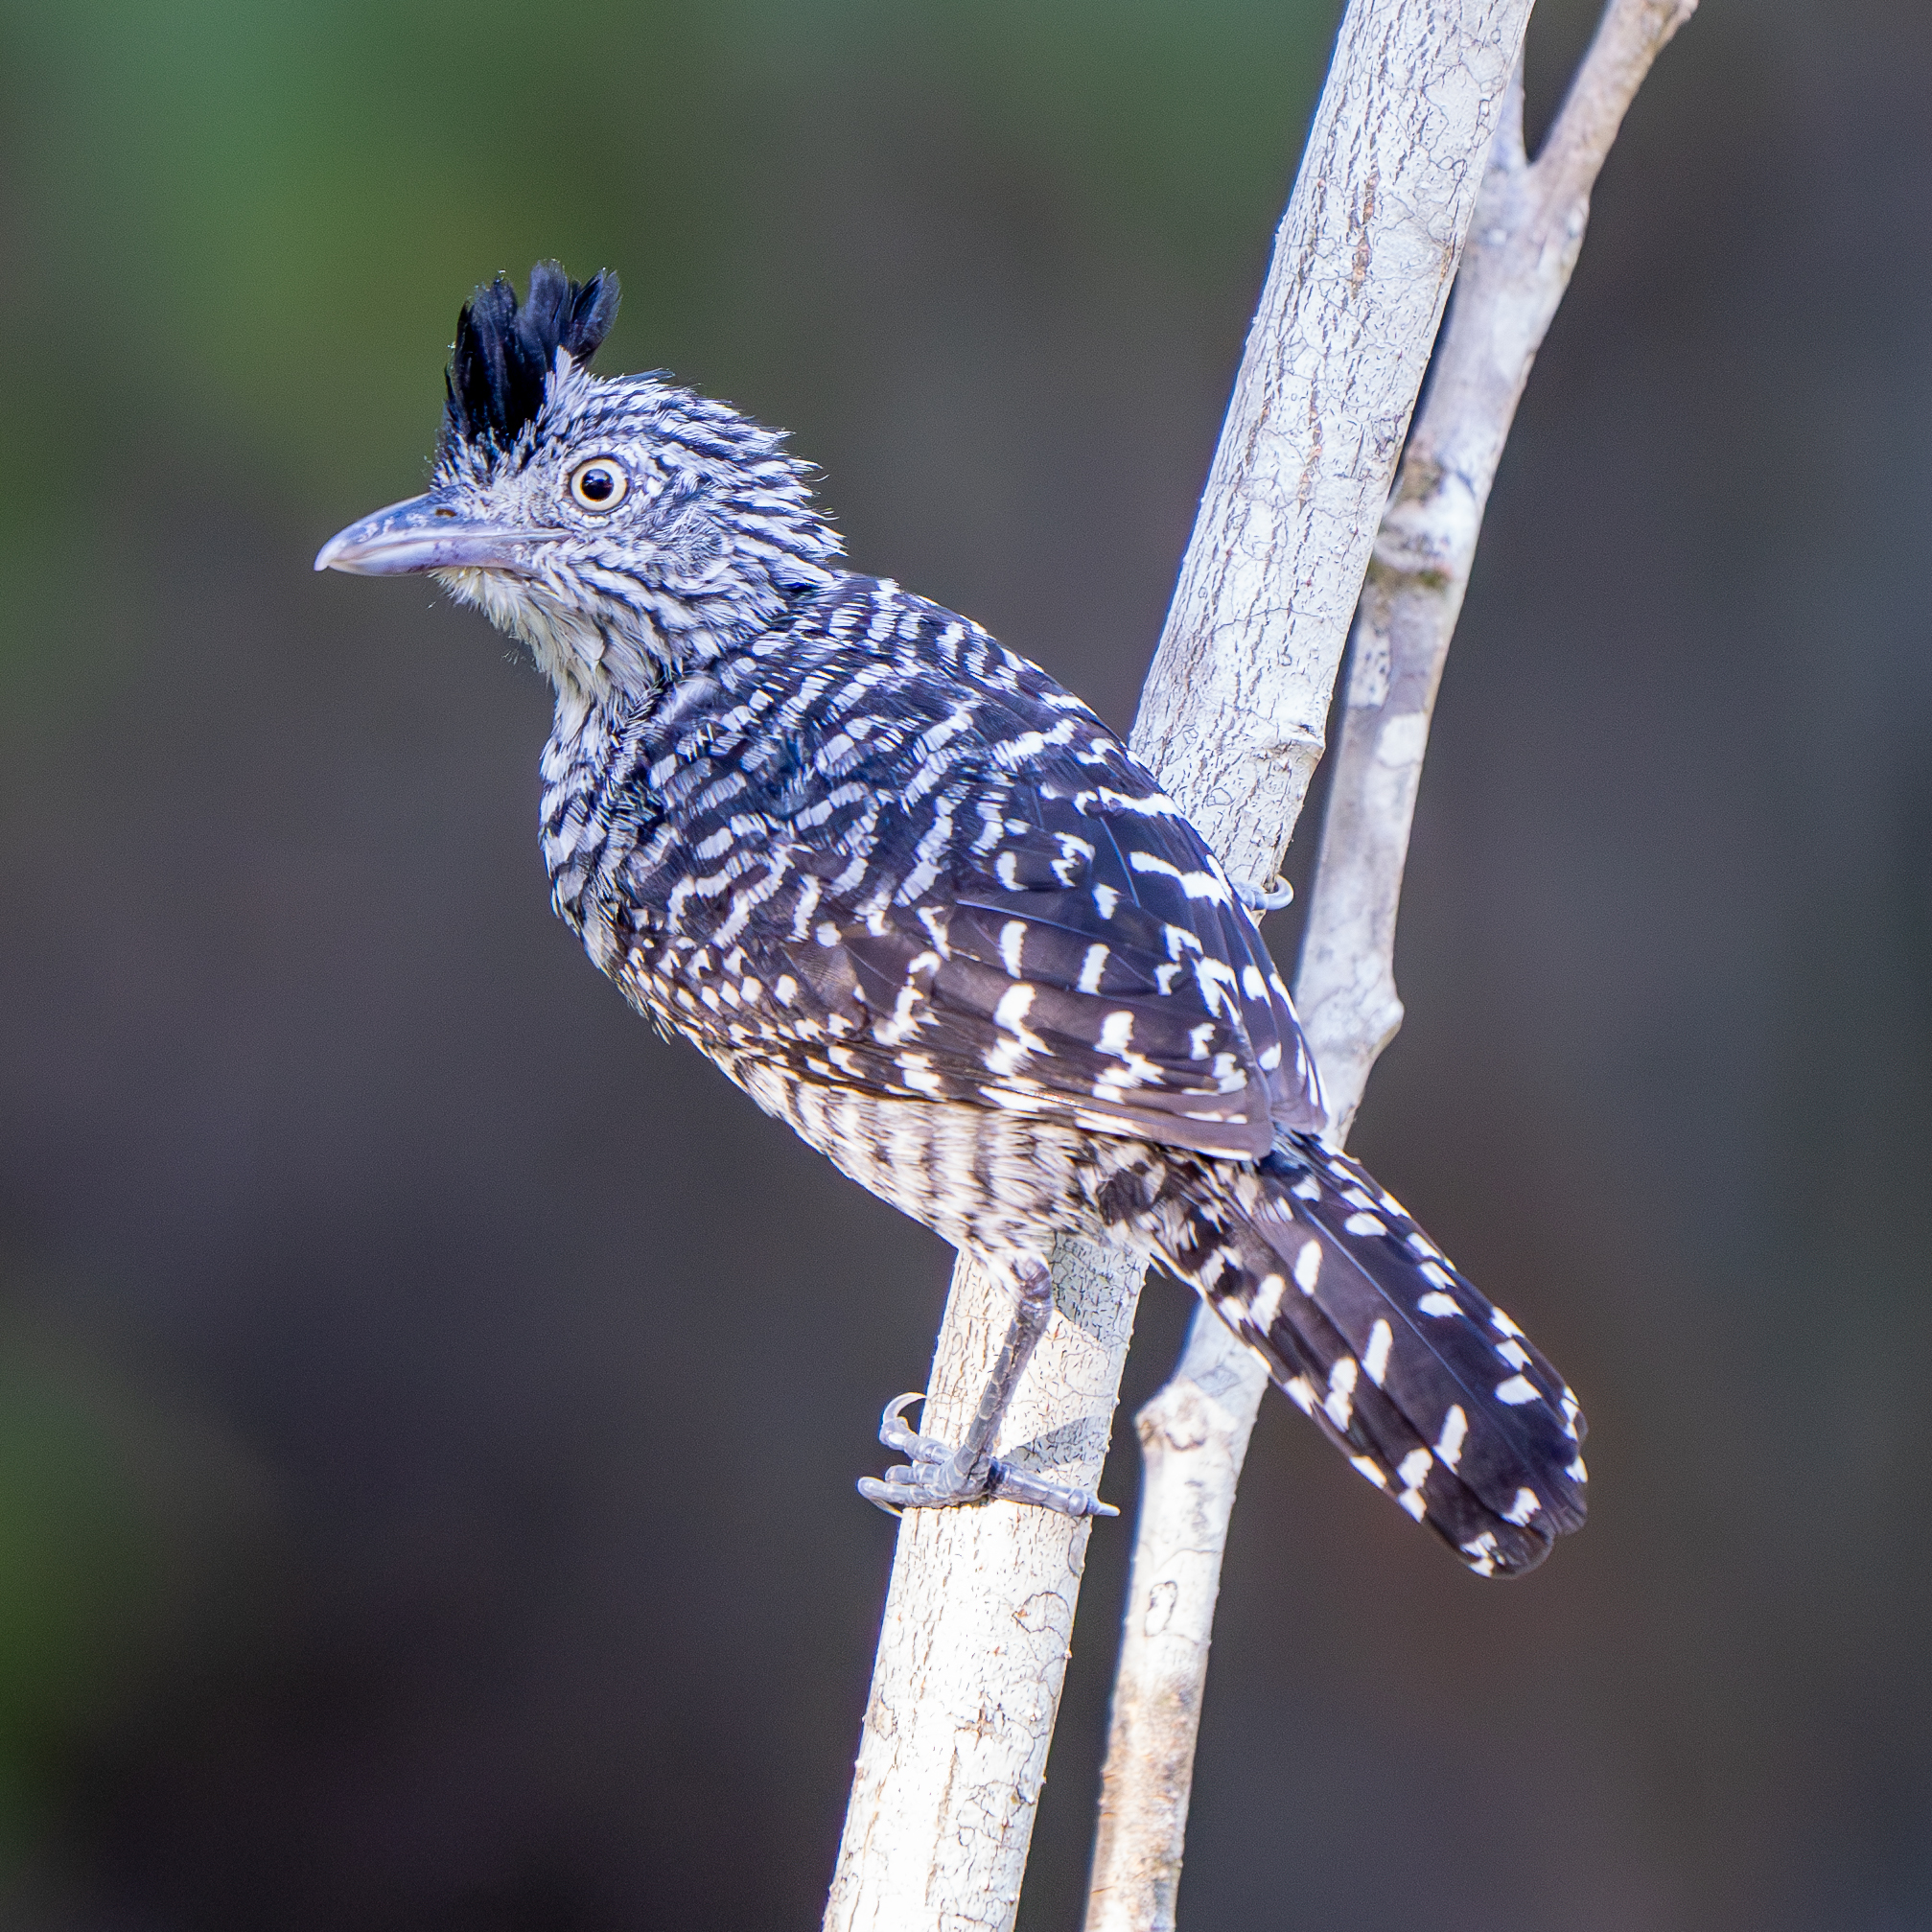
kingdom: Animalia
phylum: Chordata
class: Aves
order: Passeriformes
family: Thamnophilidae
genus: Thamnophilus
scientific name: Thamnophilus doliatus
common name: Barred antshrike
